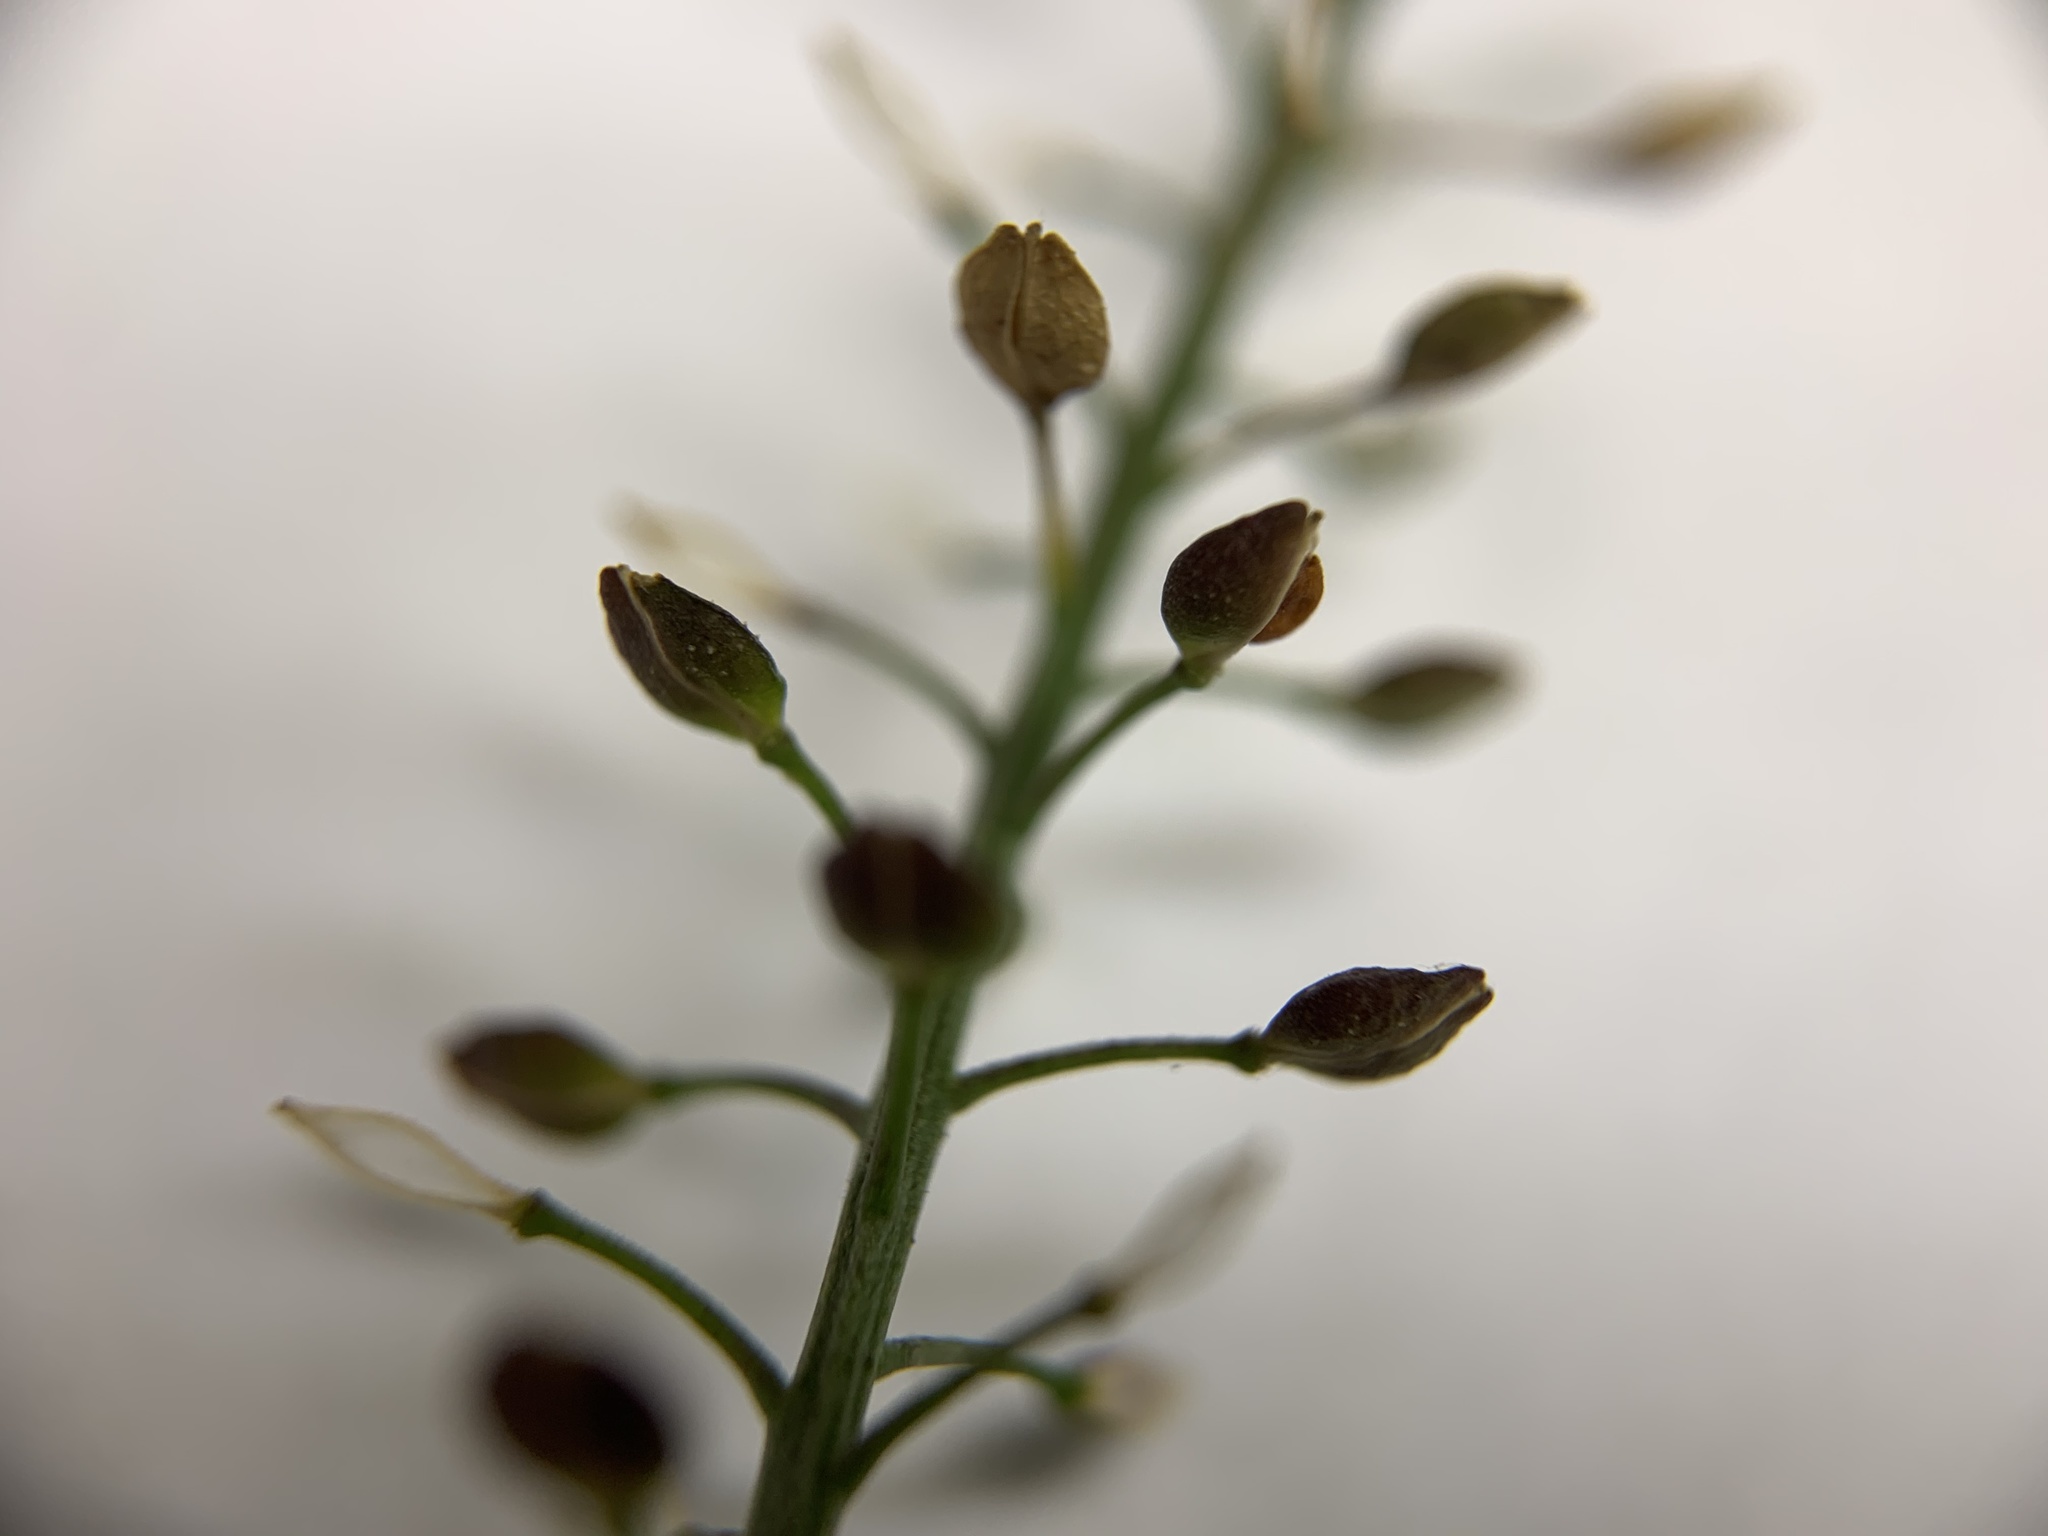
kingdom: Plantae
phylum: Tracheophyta
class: Magnoliopsida
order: Brassicales
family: Brassicaceae
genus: Lepidium
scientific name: Lepidium pseudotasmanicum
